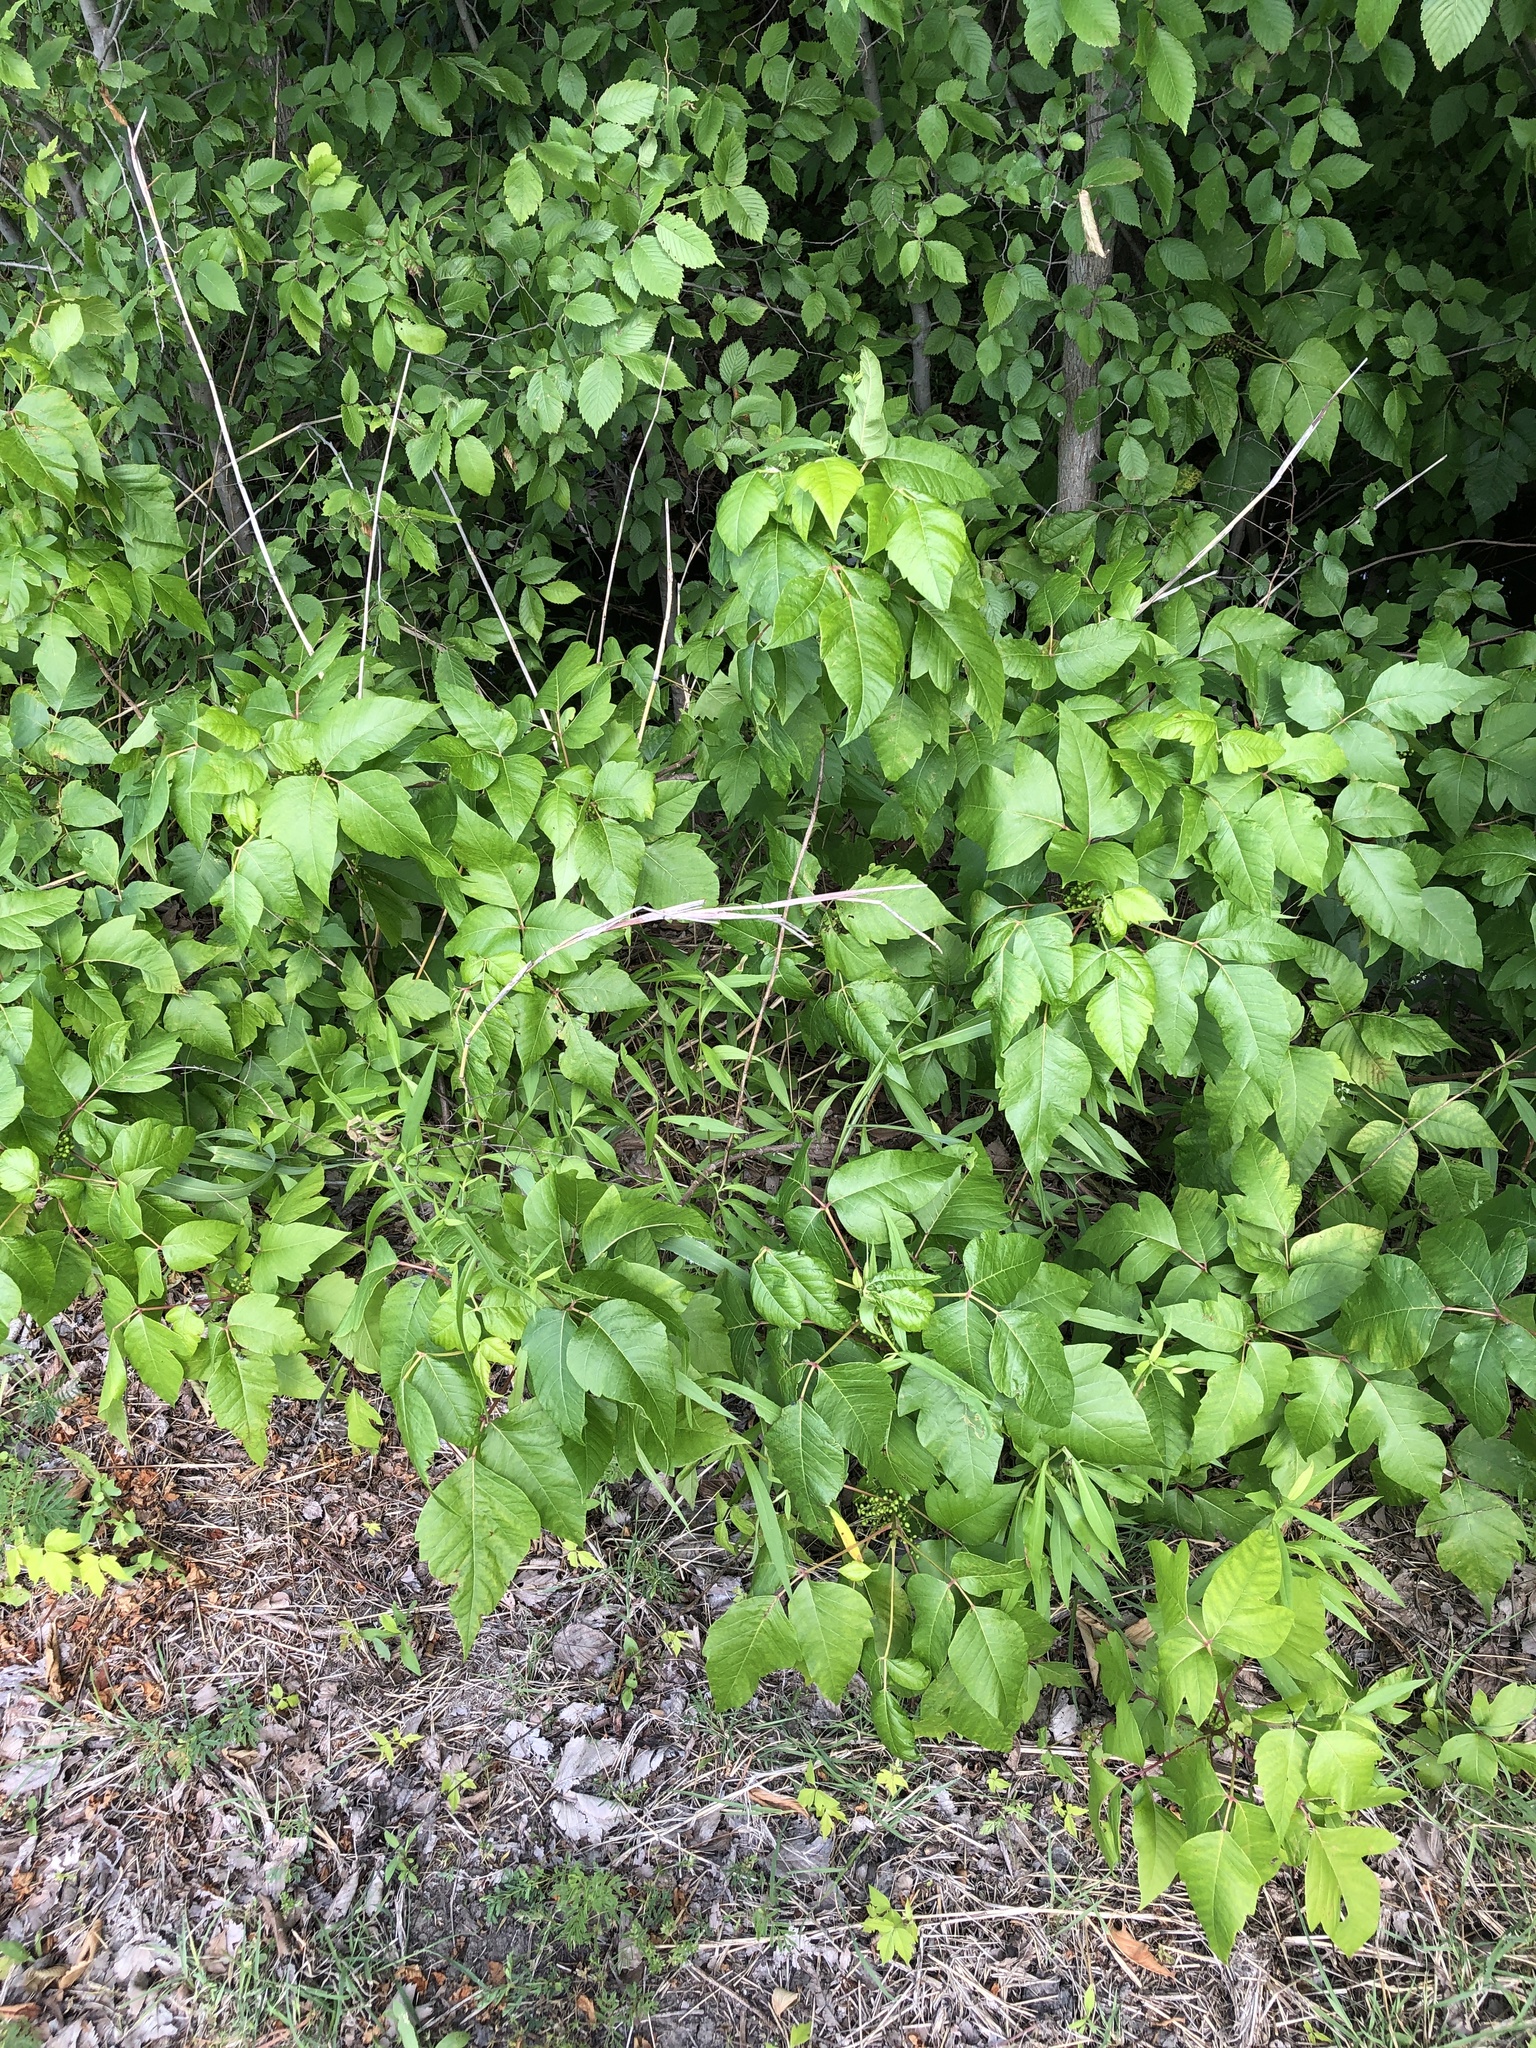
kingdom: Plantae
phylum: Tracheophyta
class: Magnoliopsida
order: Sapindales
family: Anacardiaceae
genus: Toxicodendron
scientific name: Toxicodendron radicans
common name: Poison ivy
